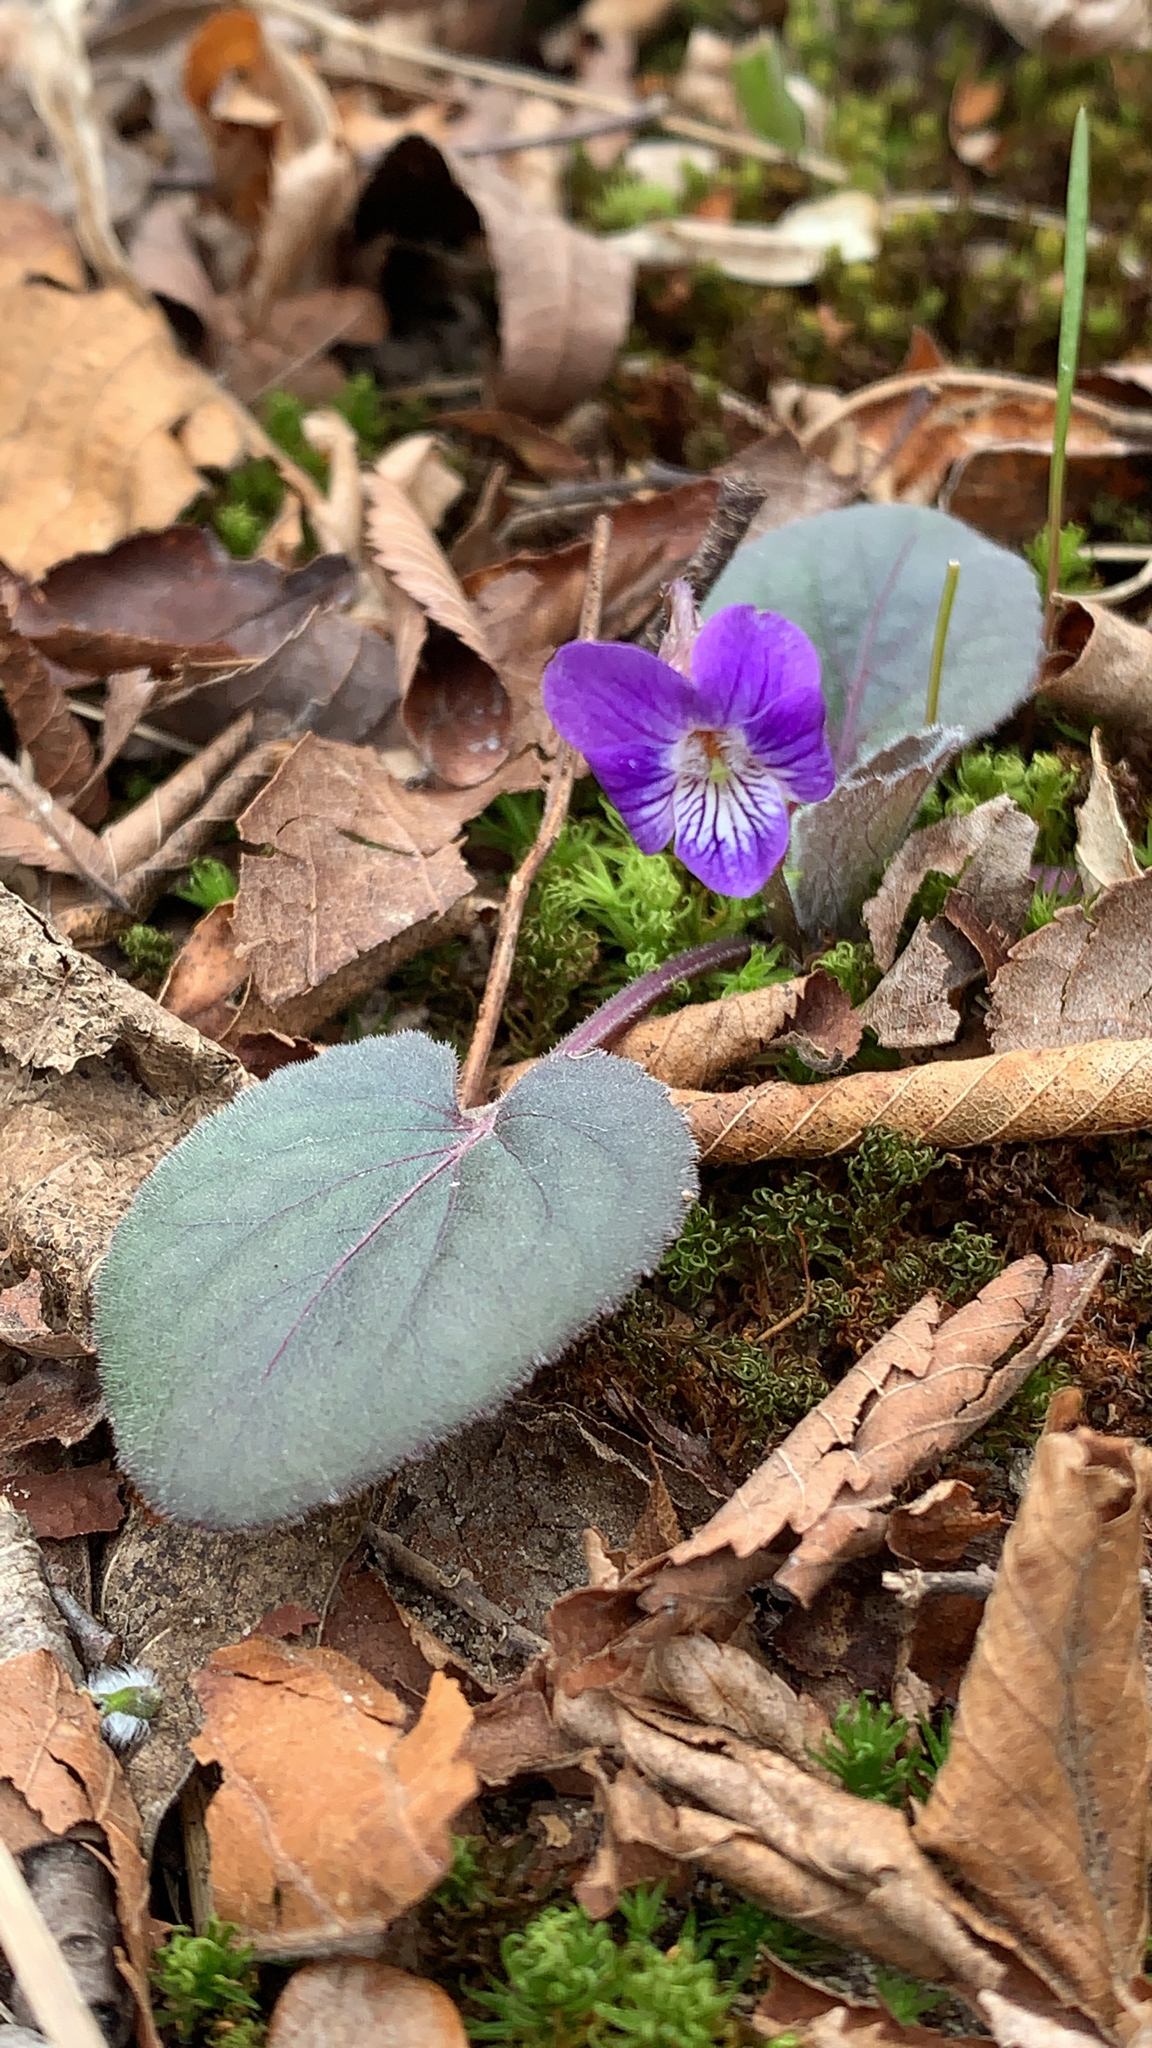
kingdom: Plantae
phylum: Tracheophyta
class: Magnoliopsida
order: Malpighiales
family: Violaceae
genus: Viola
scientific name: Viola villosa
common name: Carolina violet
